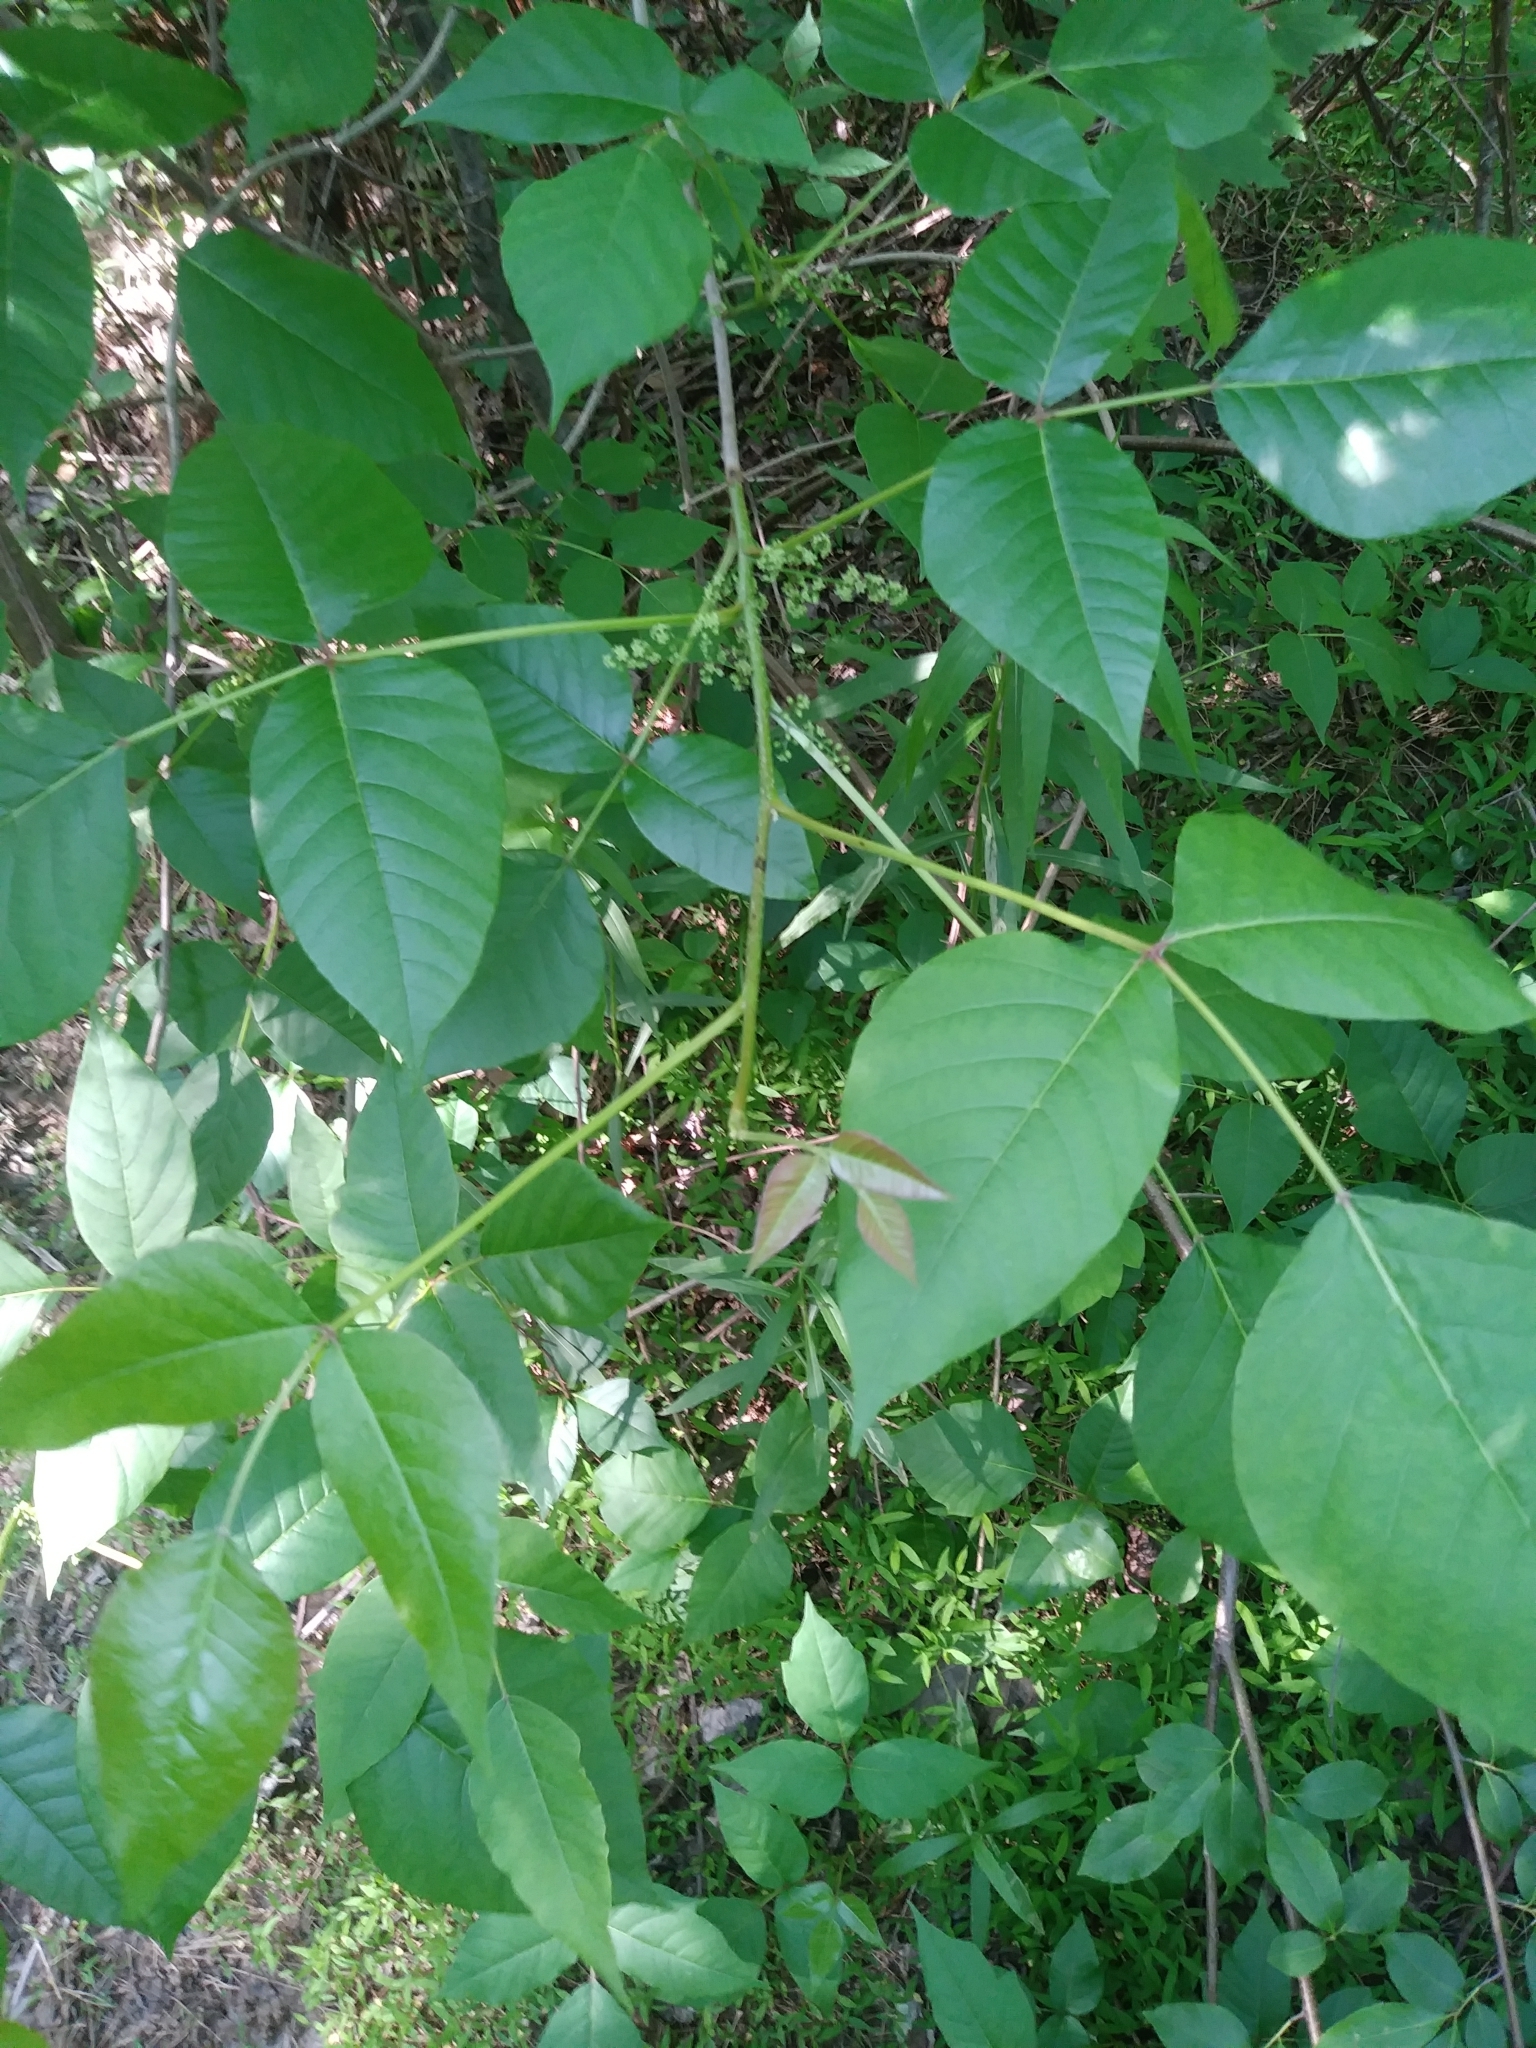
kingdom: Plantae
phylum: Tracheophyta
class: Magnoliopsida
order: Sapindales
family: Anacardiaceae
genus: Toxicodendron
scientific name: Toxicodendron radicans
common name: Poison ivy
